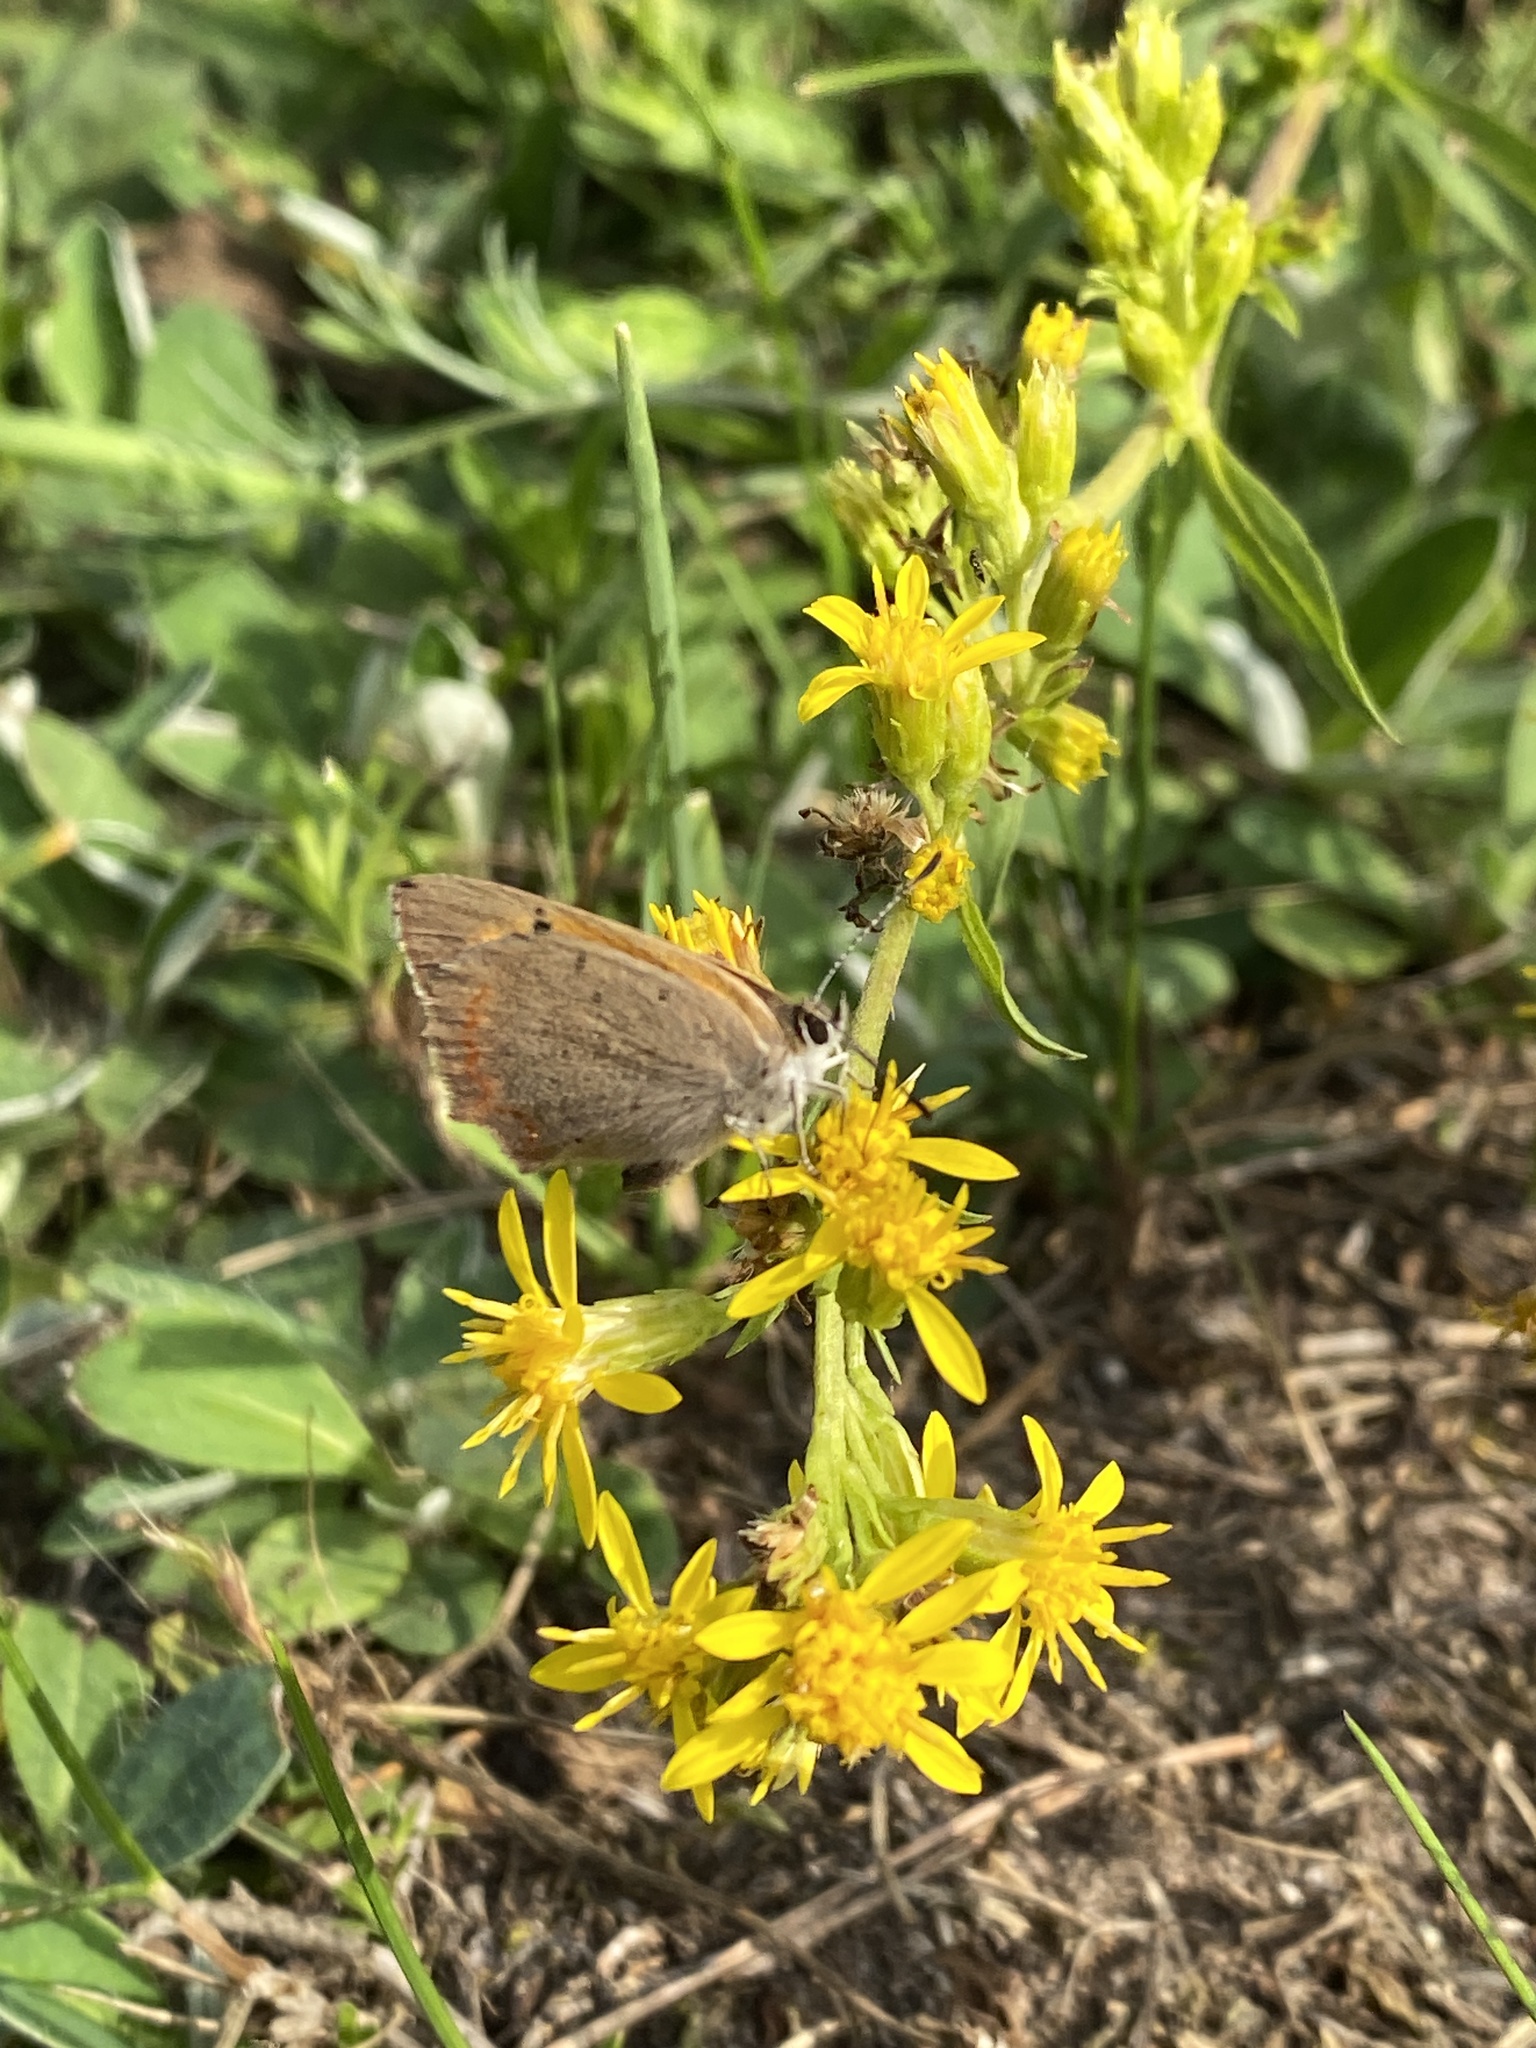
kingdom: Animalia
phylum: Arthropoda
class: Insecta
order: Lepidoptera
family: Lycaenidae
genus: Lycaena
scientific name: Lycaena phlaeas
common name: Small copper
